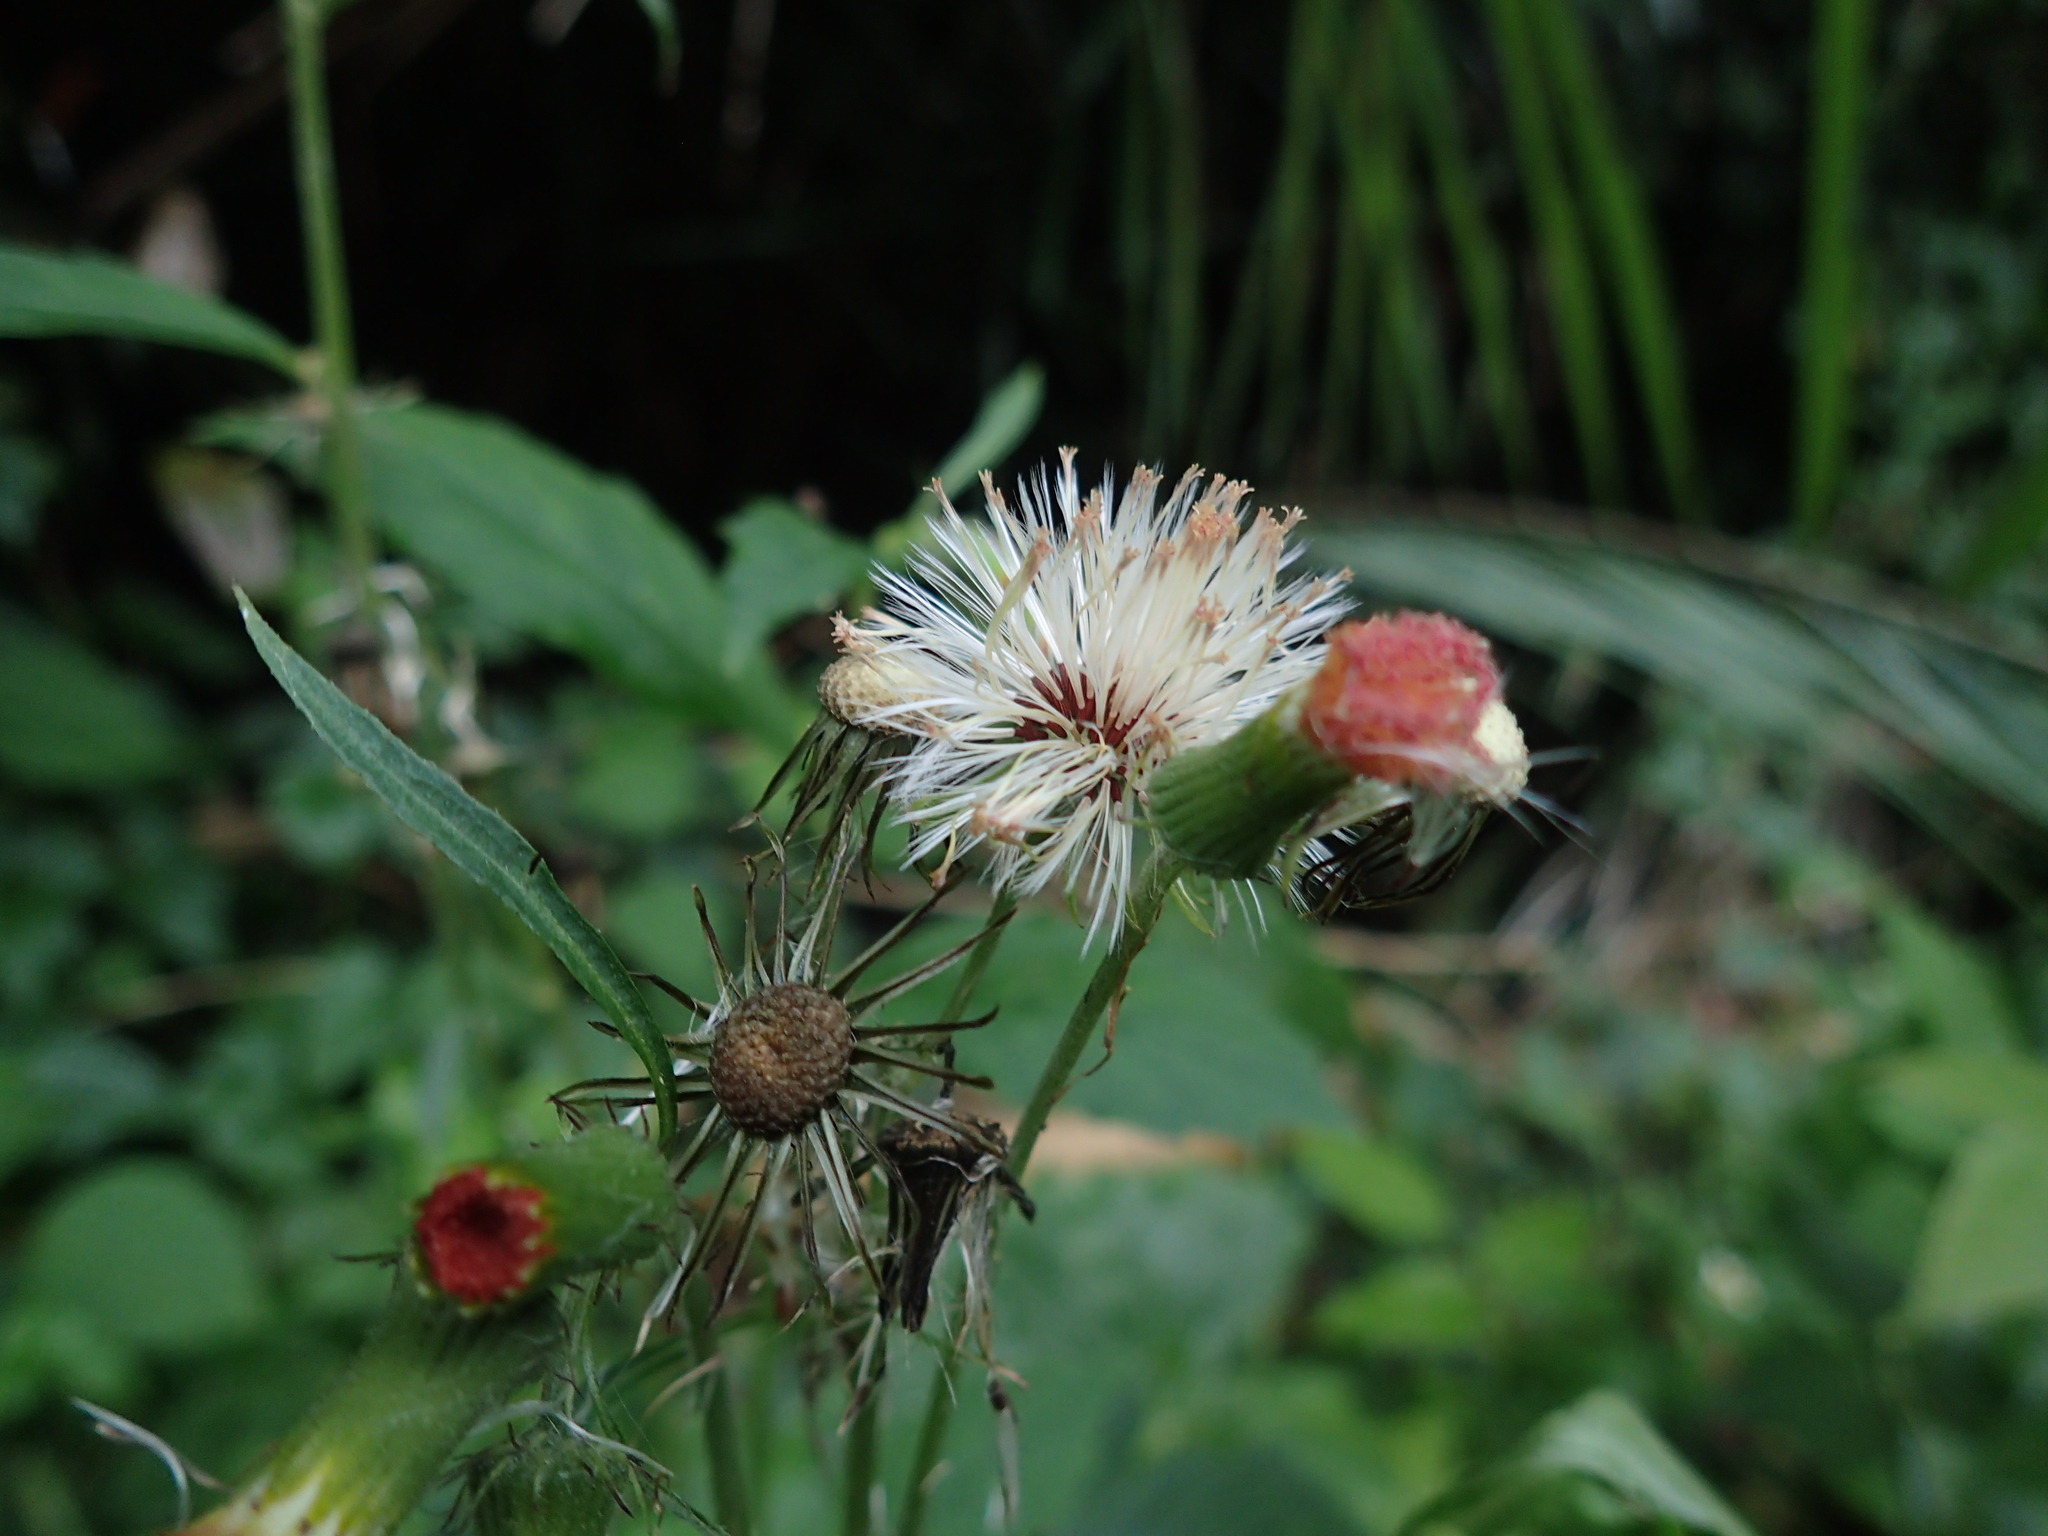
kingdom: Plantae
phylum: Tracheophyta
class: Magnoliopsida
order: Asterales
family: Asteraceae
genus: Crassocephalum
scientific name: Crassocephalum crepidioides
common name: Redflower ragleaf
